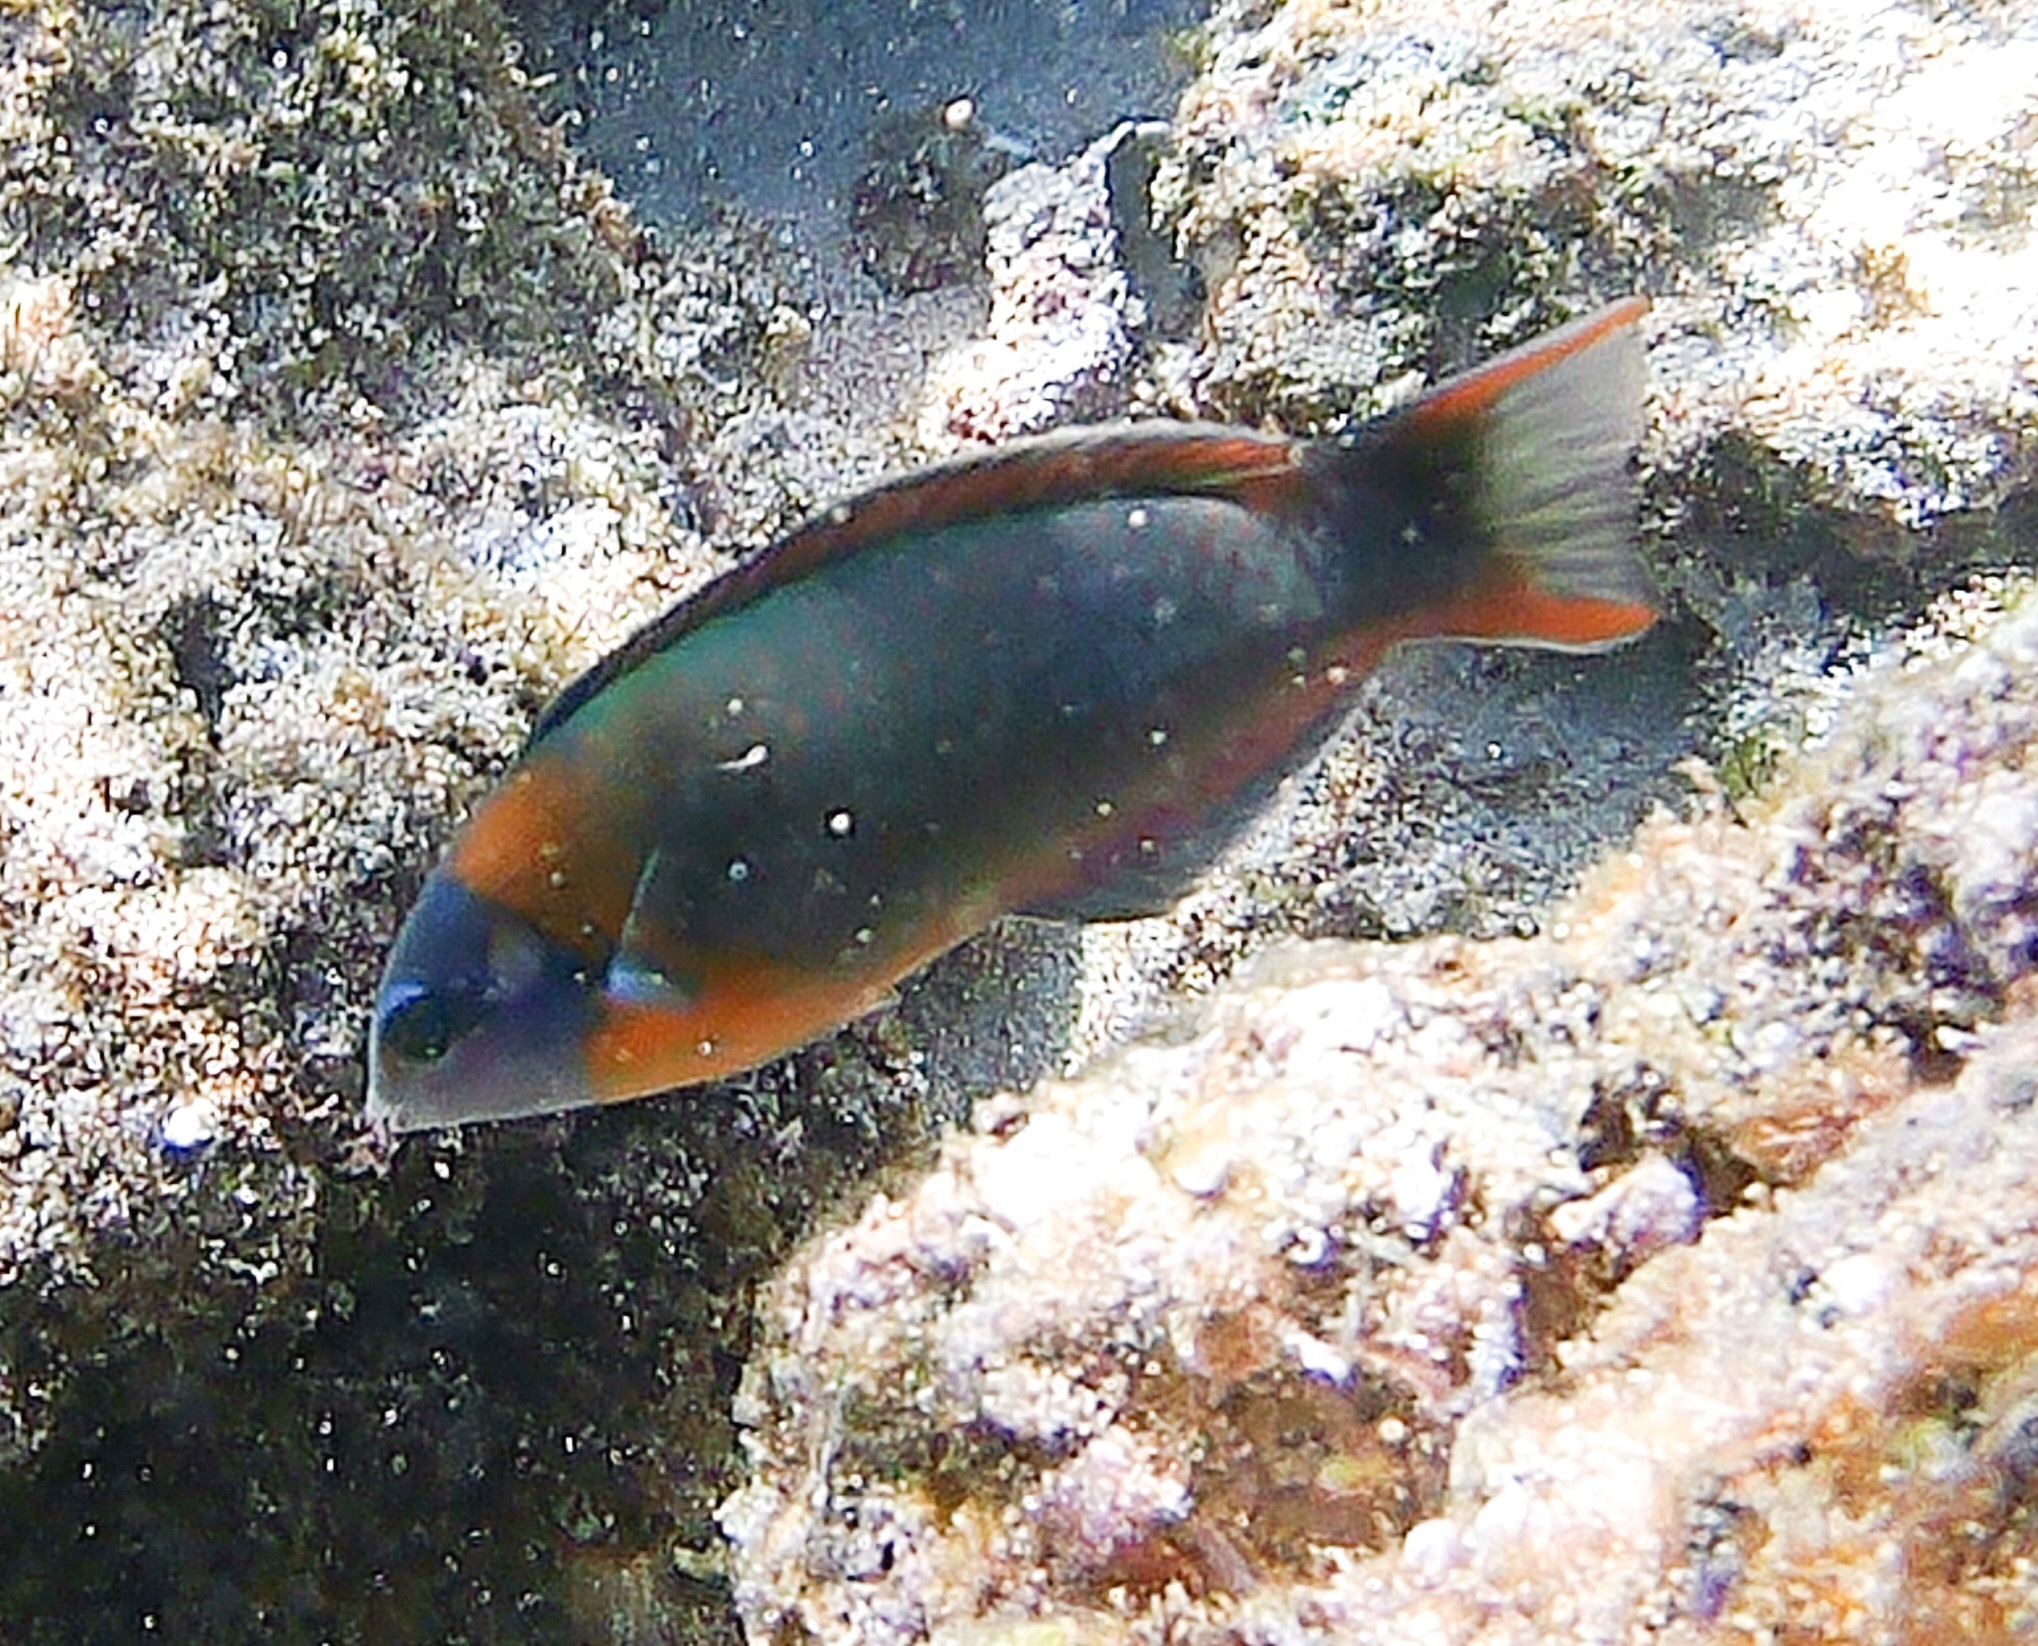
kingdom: Animalia
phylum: Chordata
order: Perciformes
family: Labridae
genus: Thalassoma
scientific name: Thalassoma duperrey
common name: Saddle wrasse
